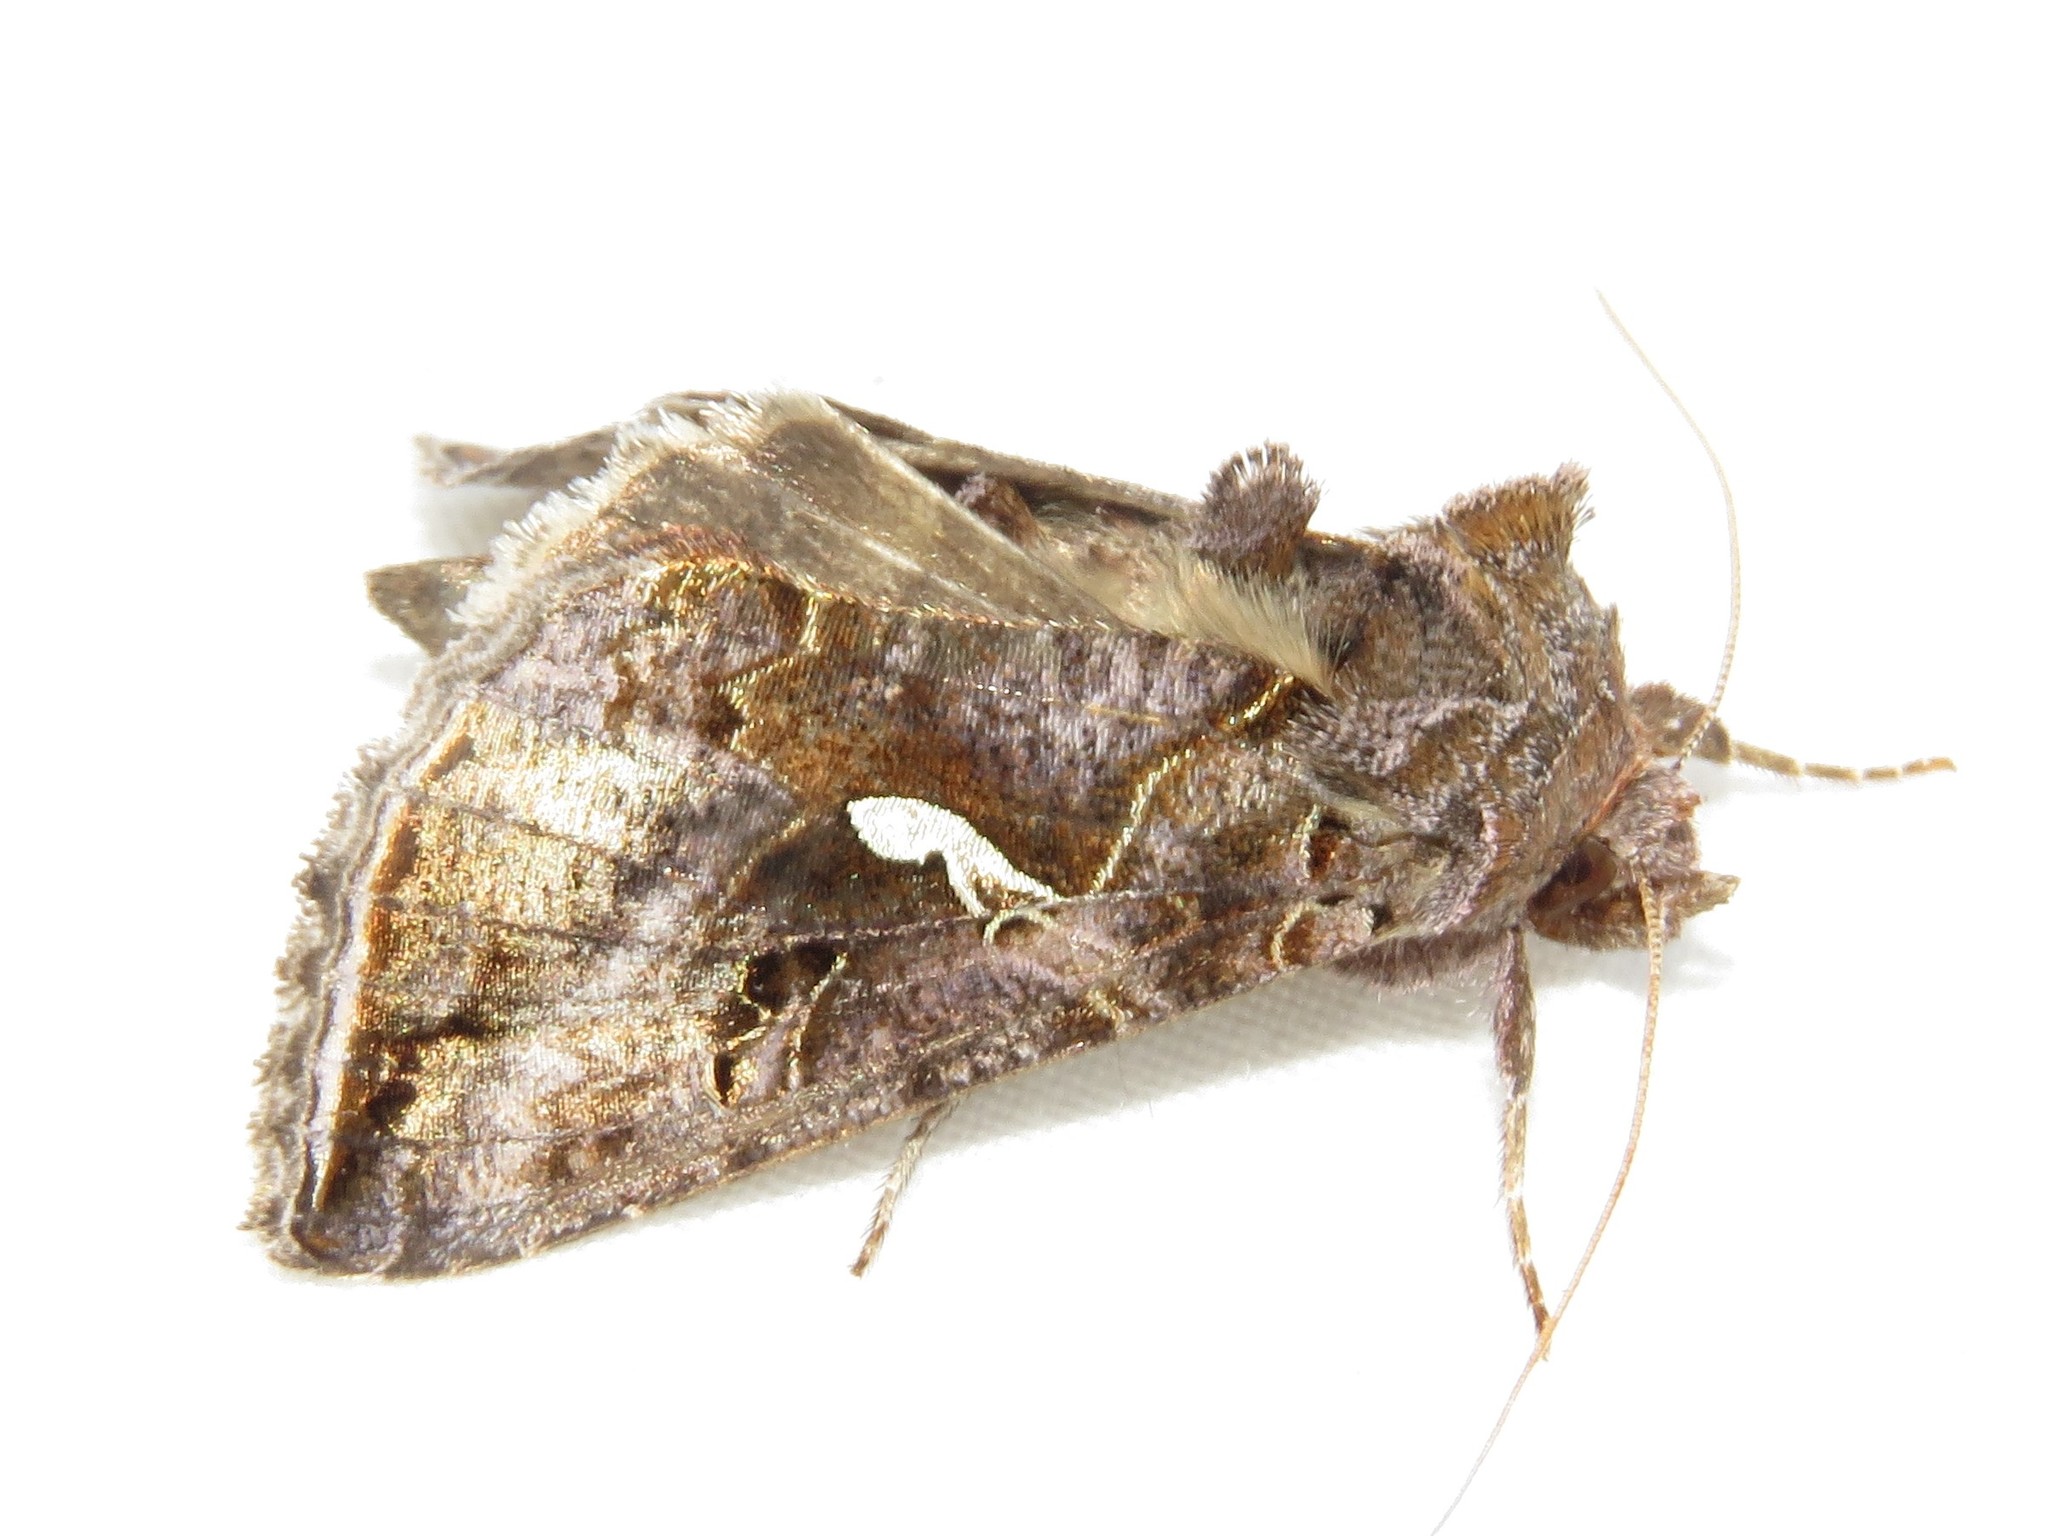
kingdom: Animalia
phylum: Arthropoda
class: Insecta
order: Lepidoptera
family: Noctuidae
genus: Autographa
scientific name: Autographa precationis
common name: Common looper moth
